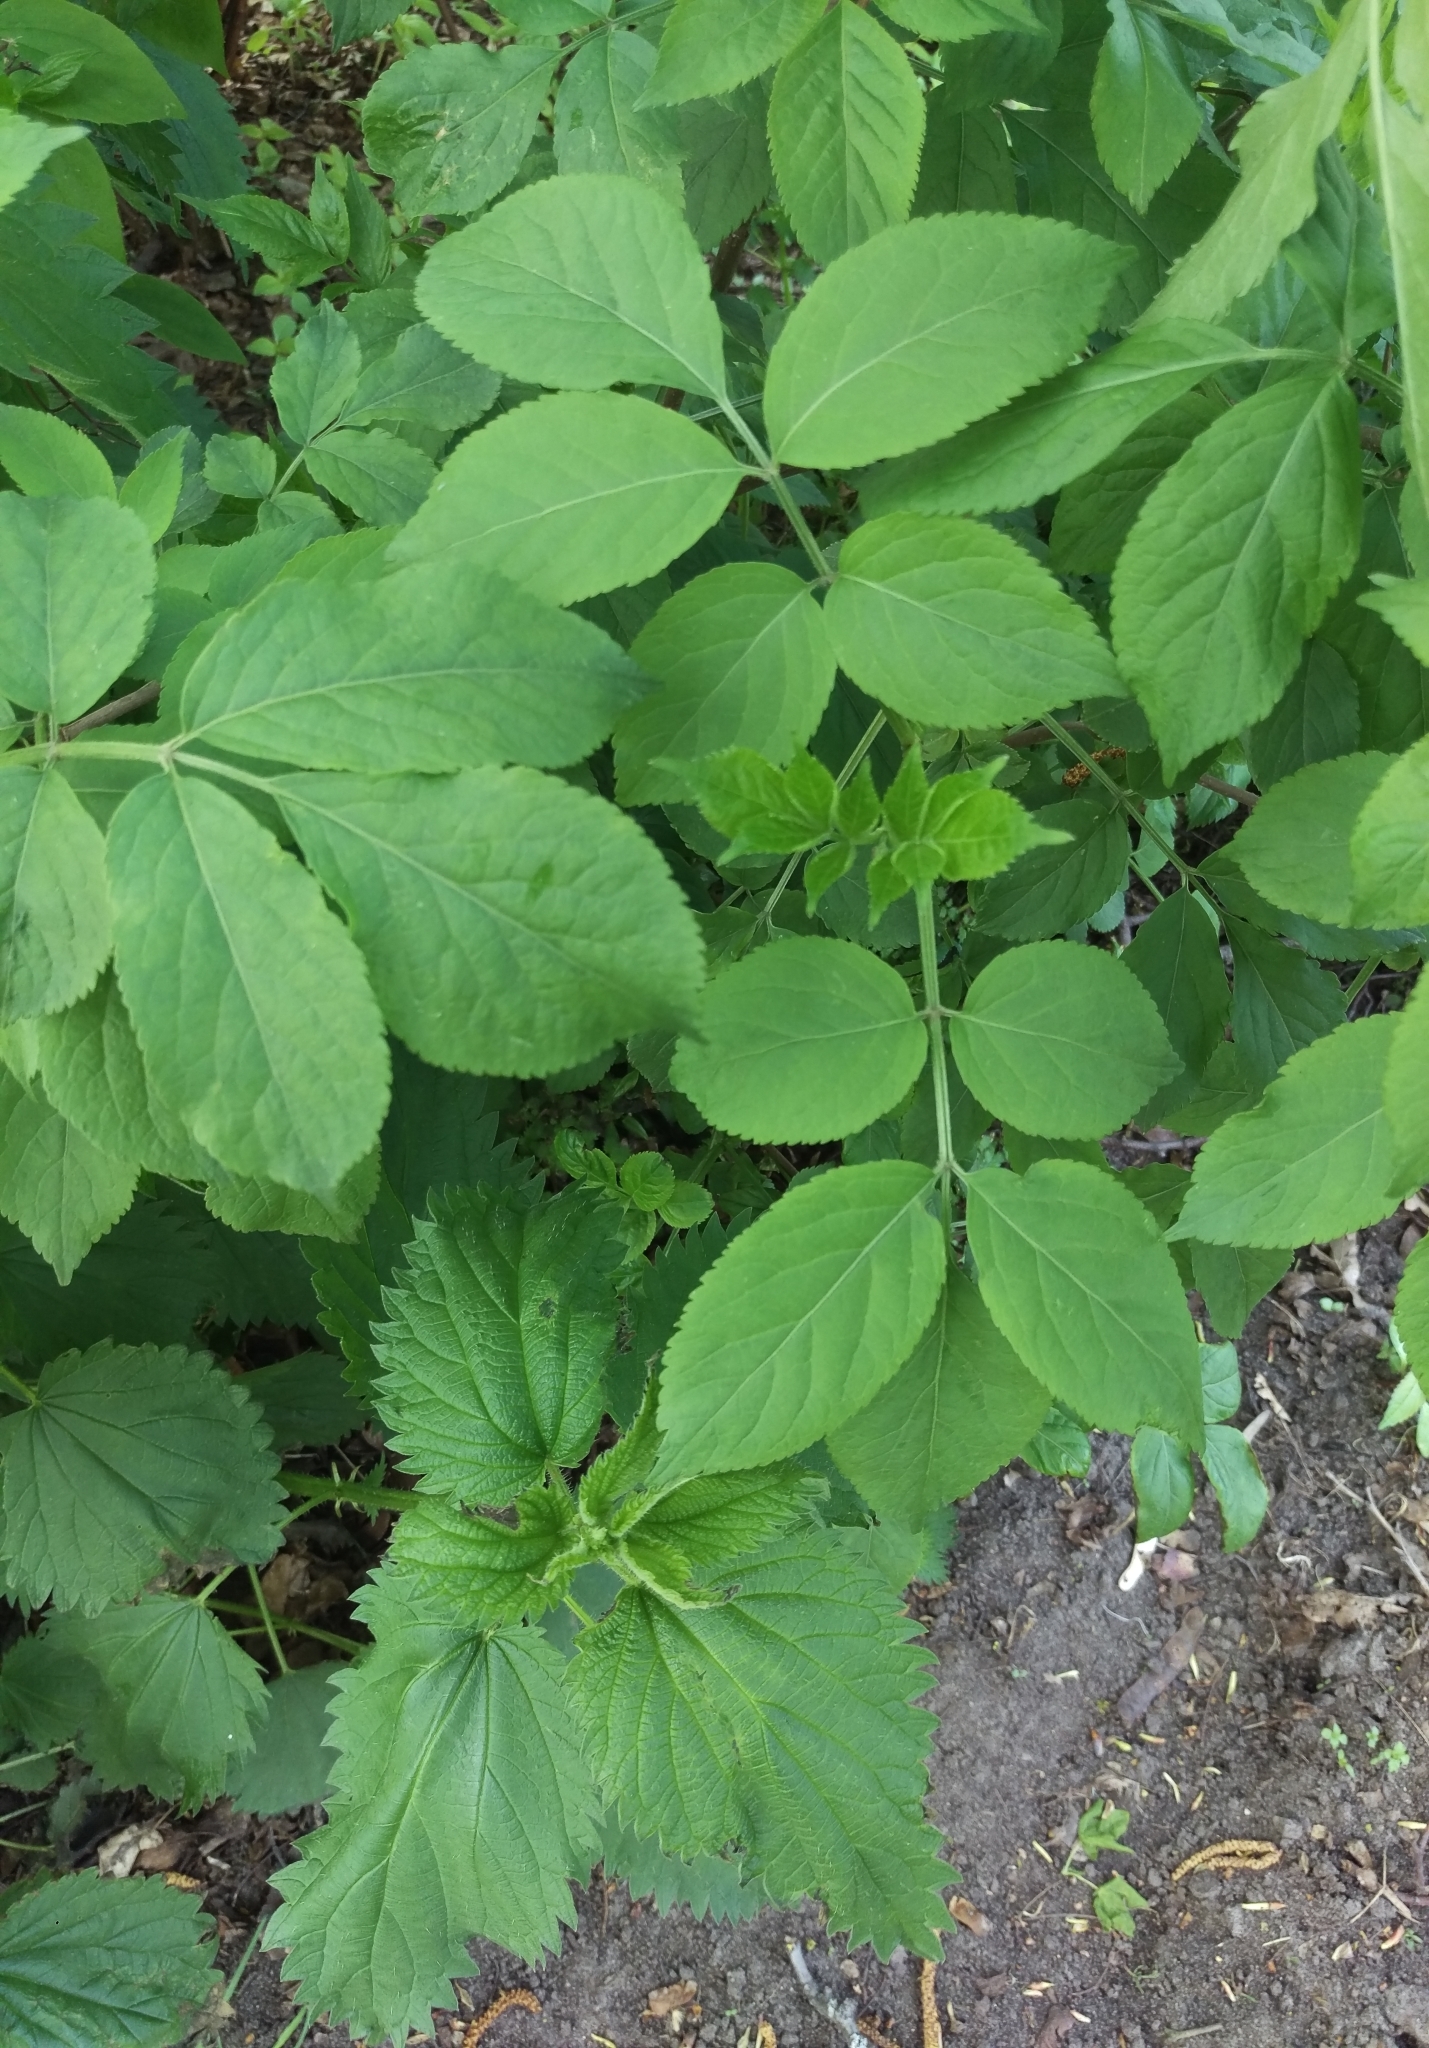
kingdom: Plantae
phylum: Tracheophyta
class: Magnoliopsida
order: Dipsacales
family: Viburnaceae
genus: Sambucus
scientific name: Sambucus nigra
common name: Elder
